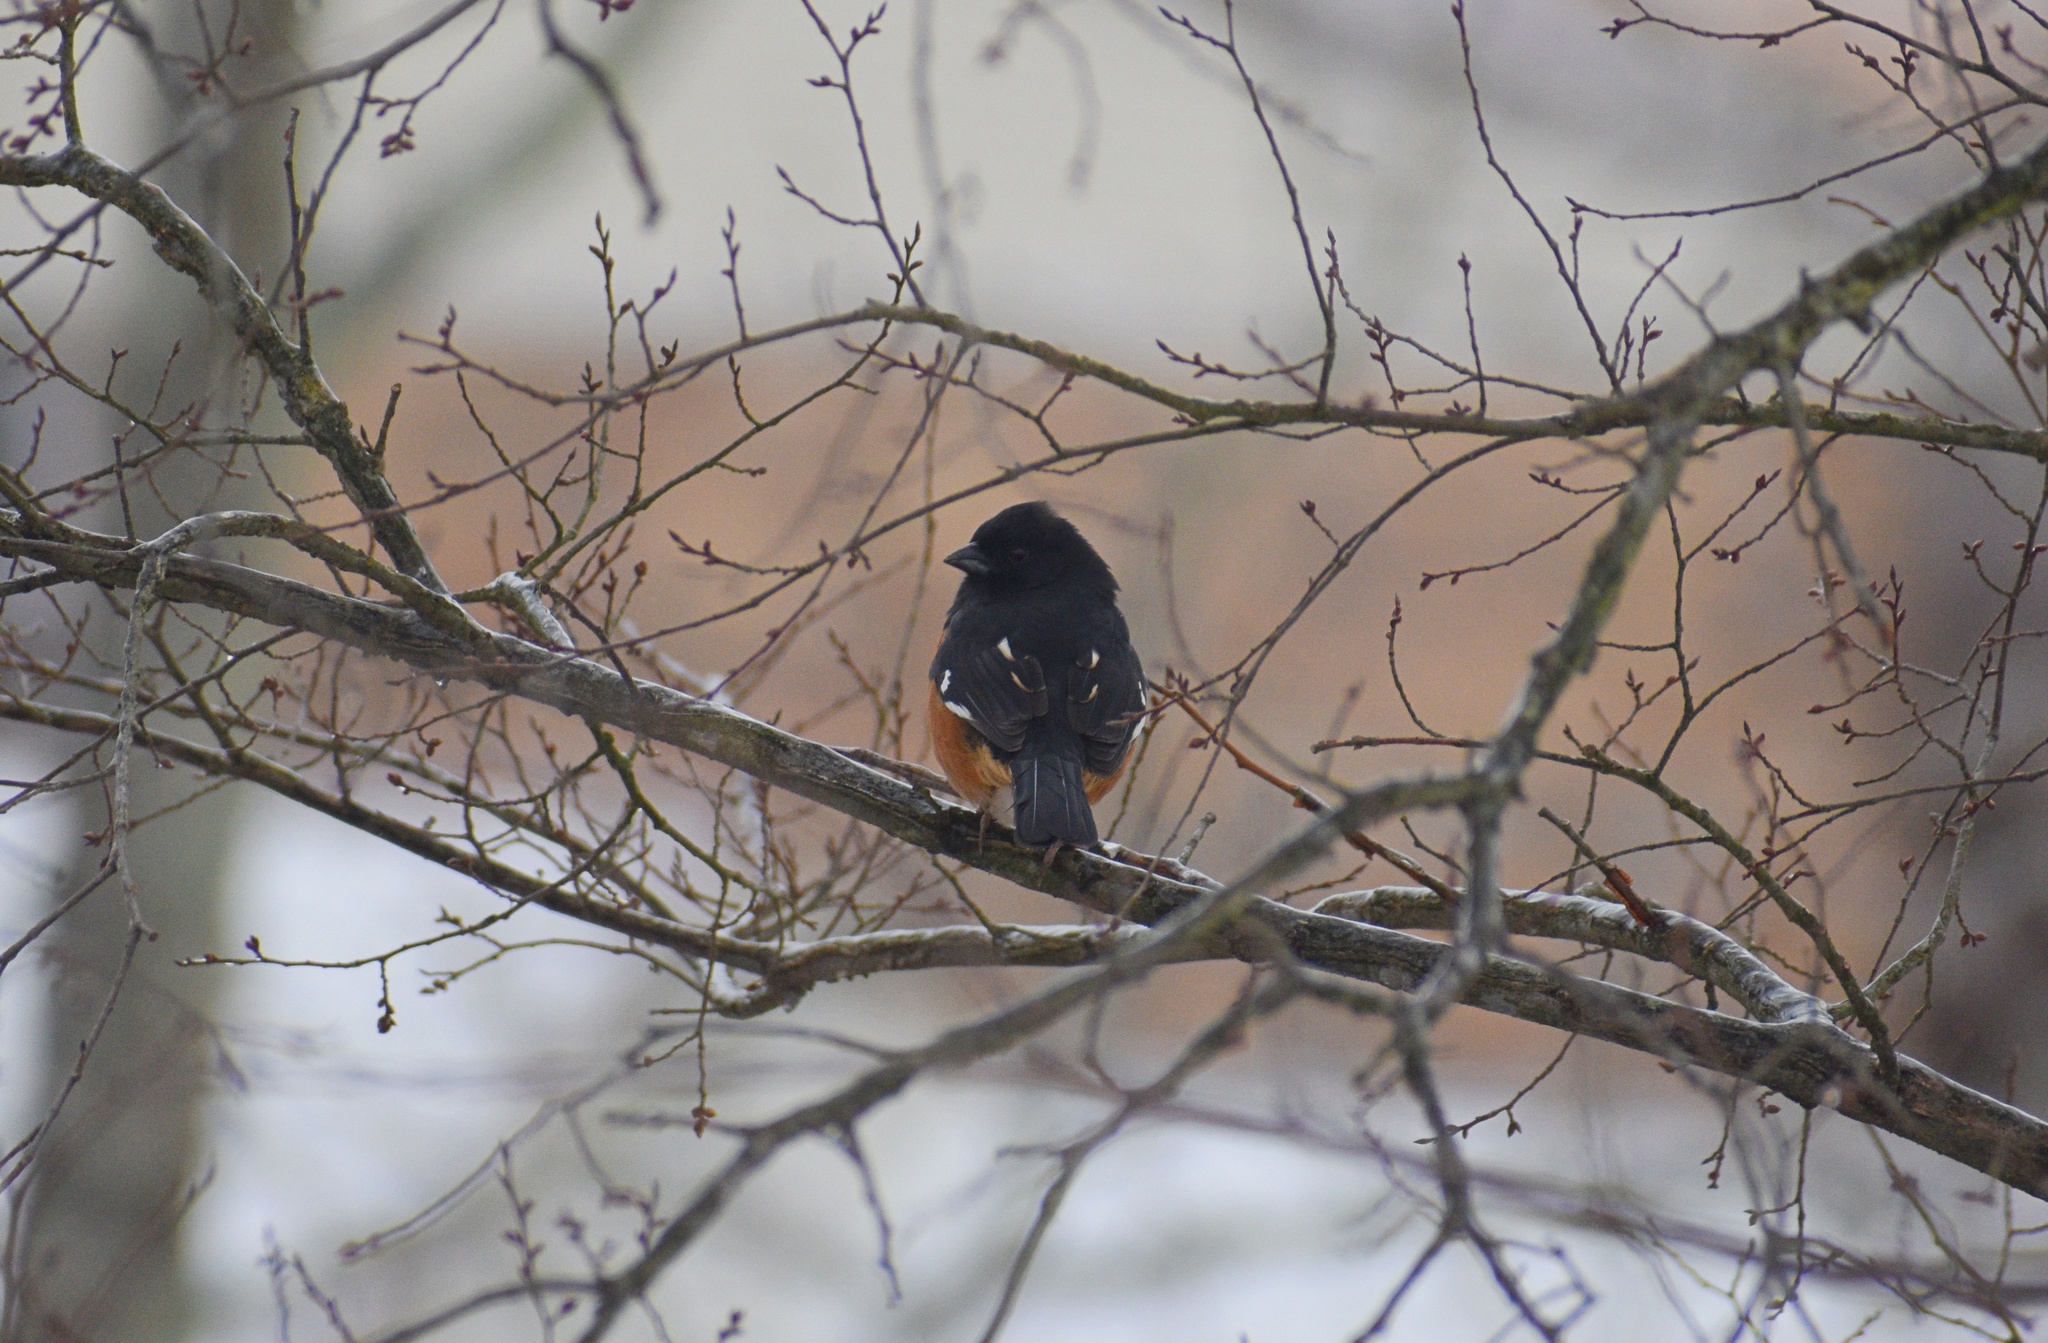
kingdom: Animalia
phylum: Chordata
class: Aves
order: Passeriformes
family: Passerellidae
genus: Pipilo
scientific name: Pipilo erythrophthalmus
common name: Eastern towhee
